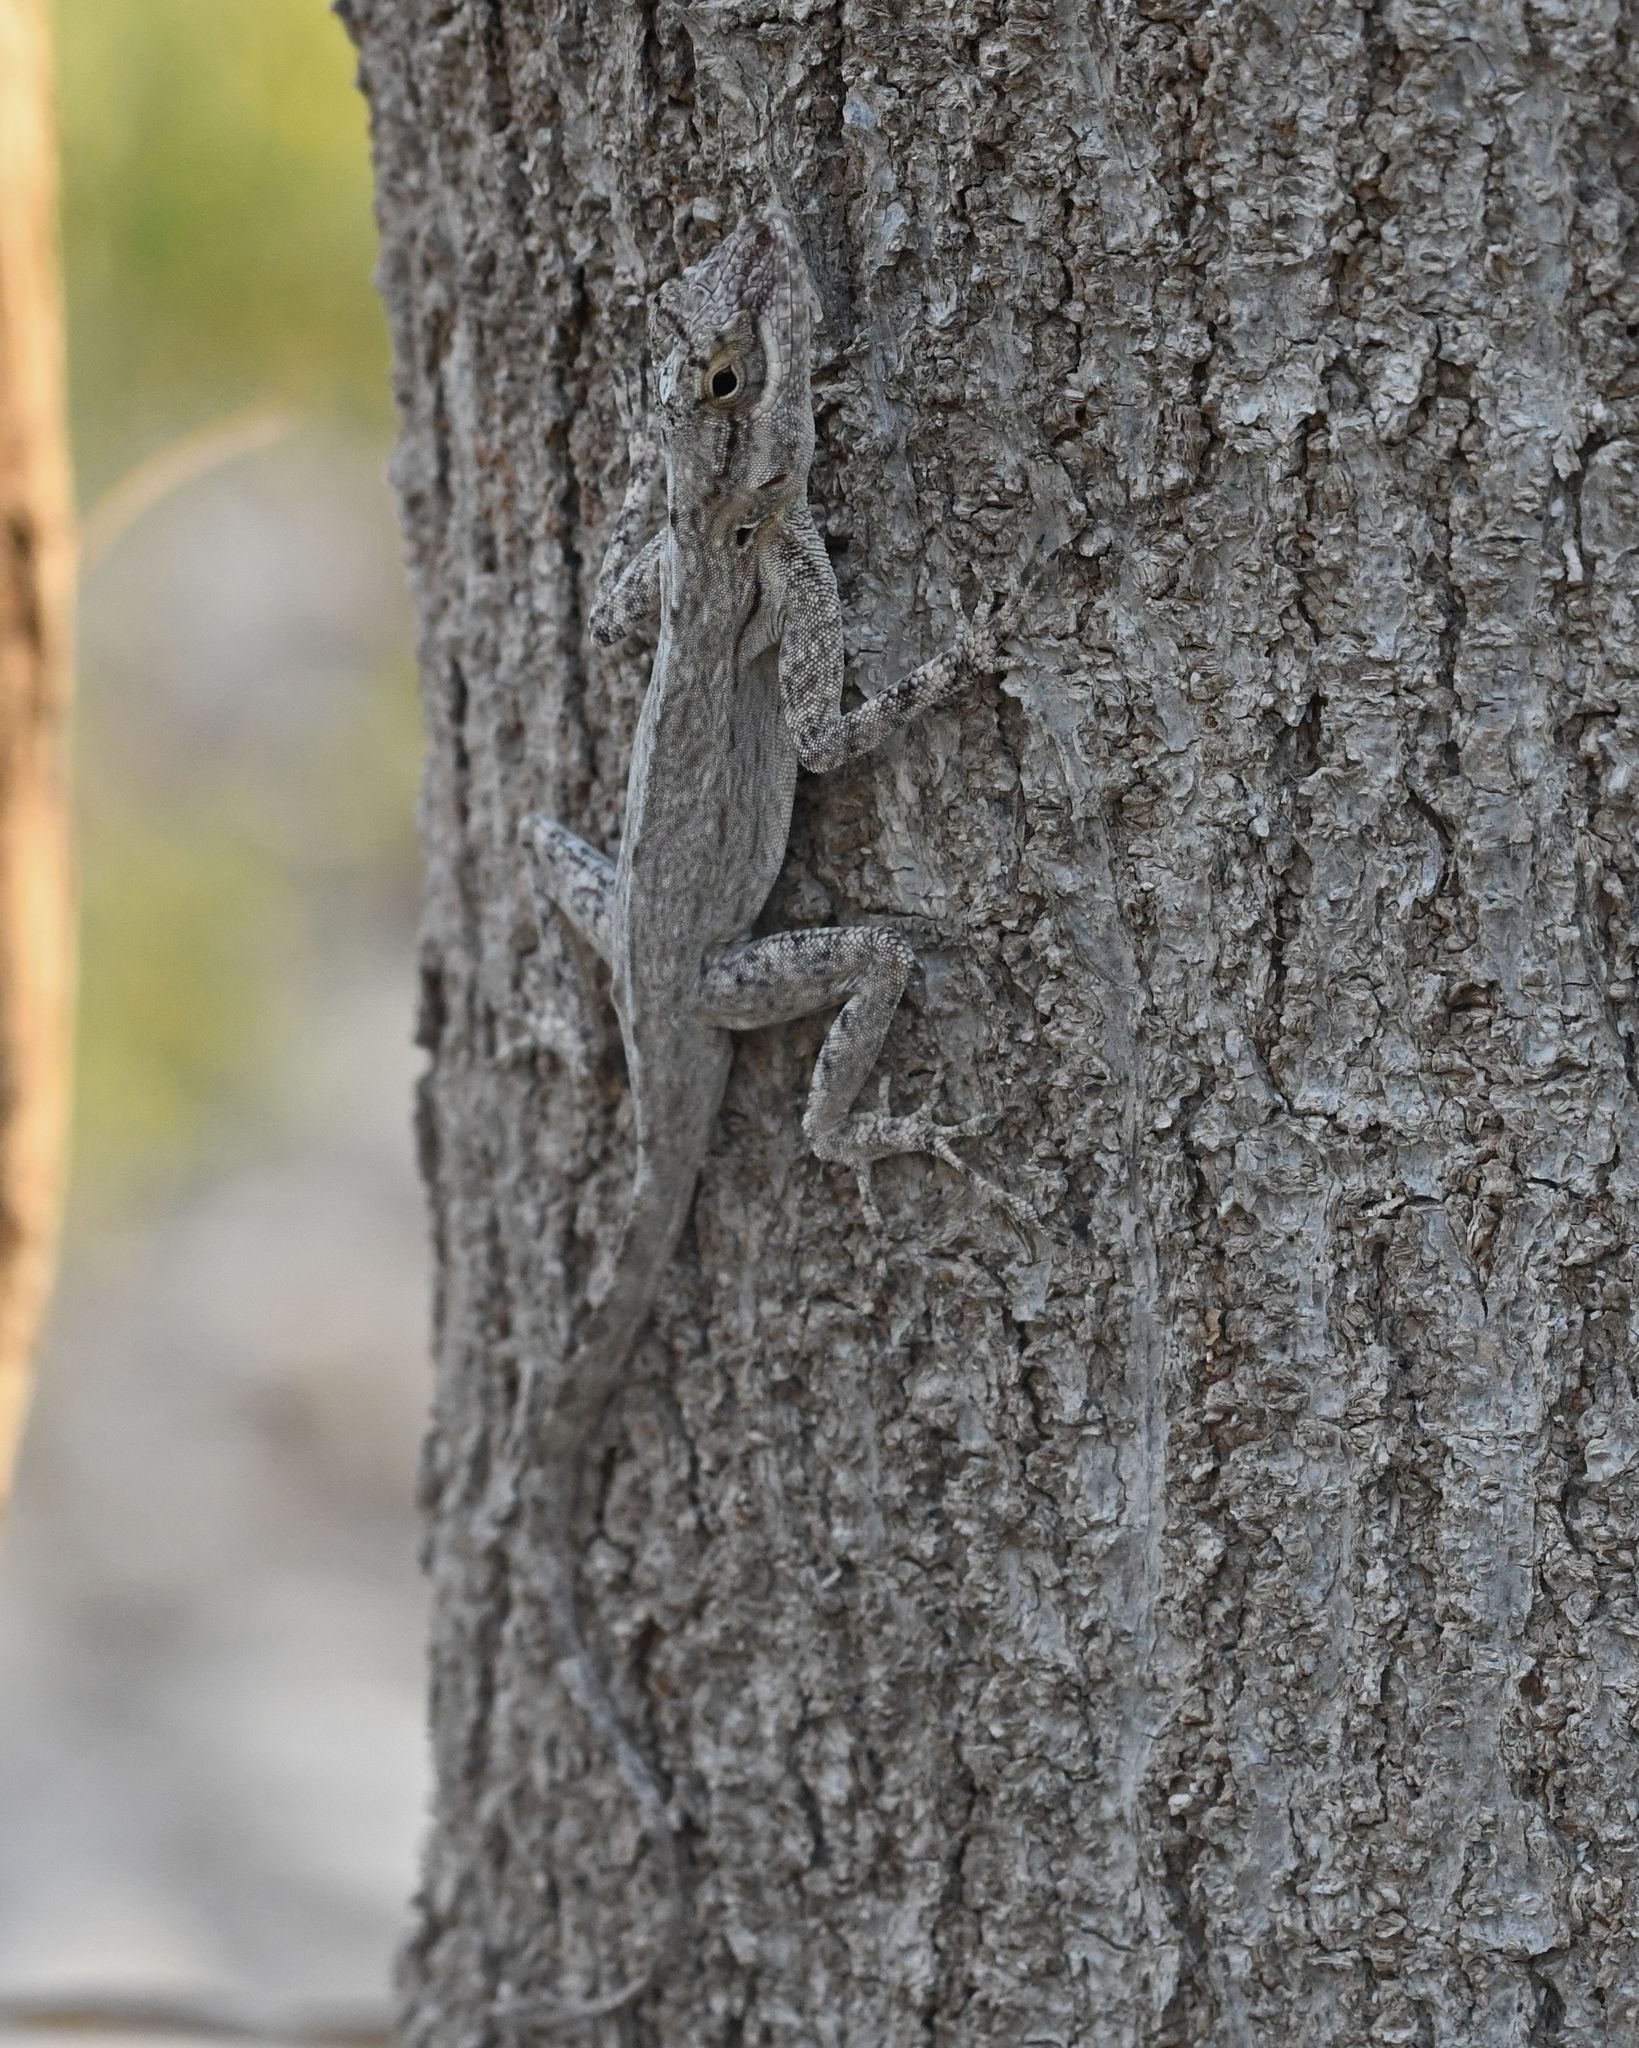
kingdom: Animalia
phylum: Chordata
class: Squamata
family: Dactyloidae
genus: Anolis
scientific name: Anolis brevirostris
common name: Desert gracile anole
